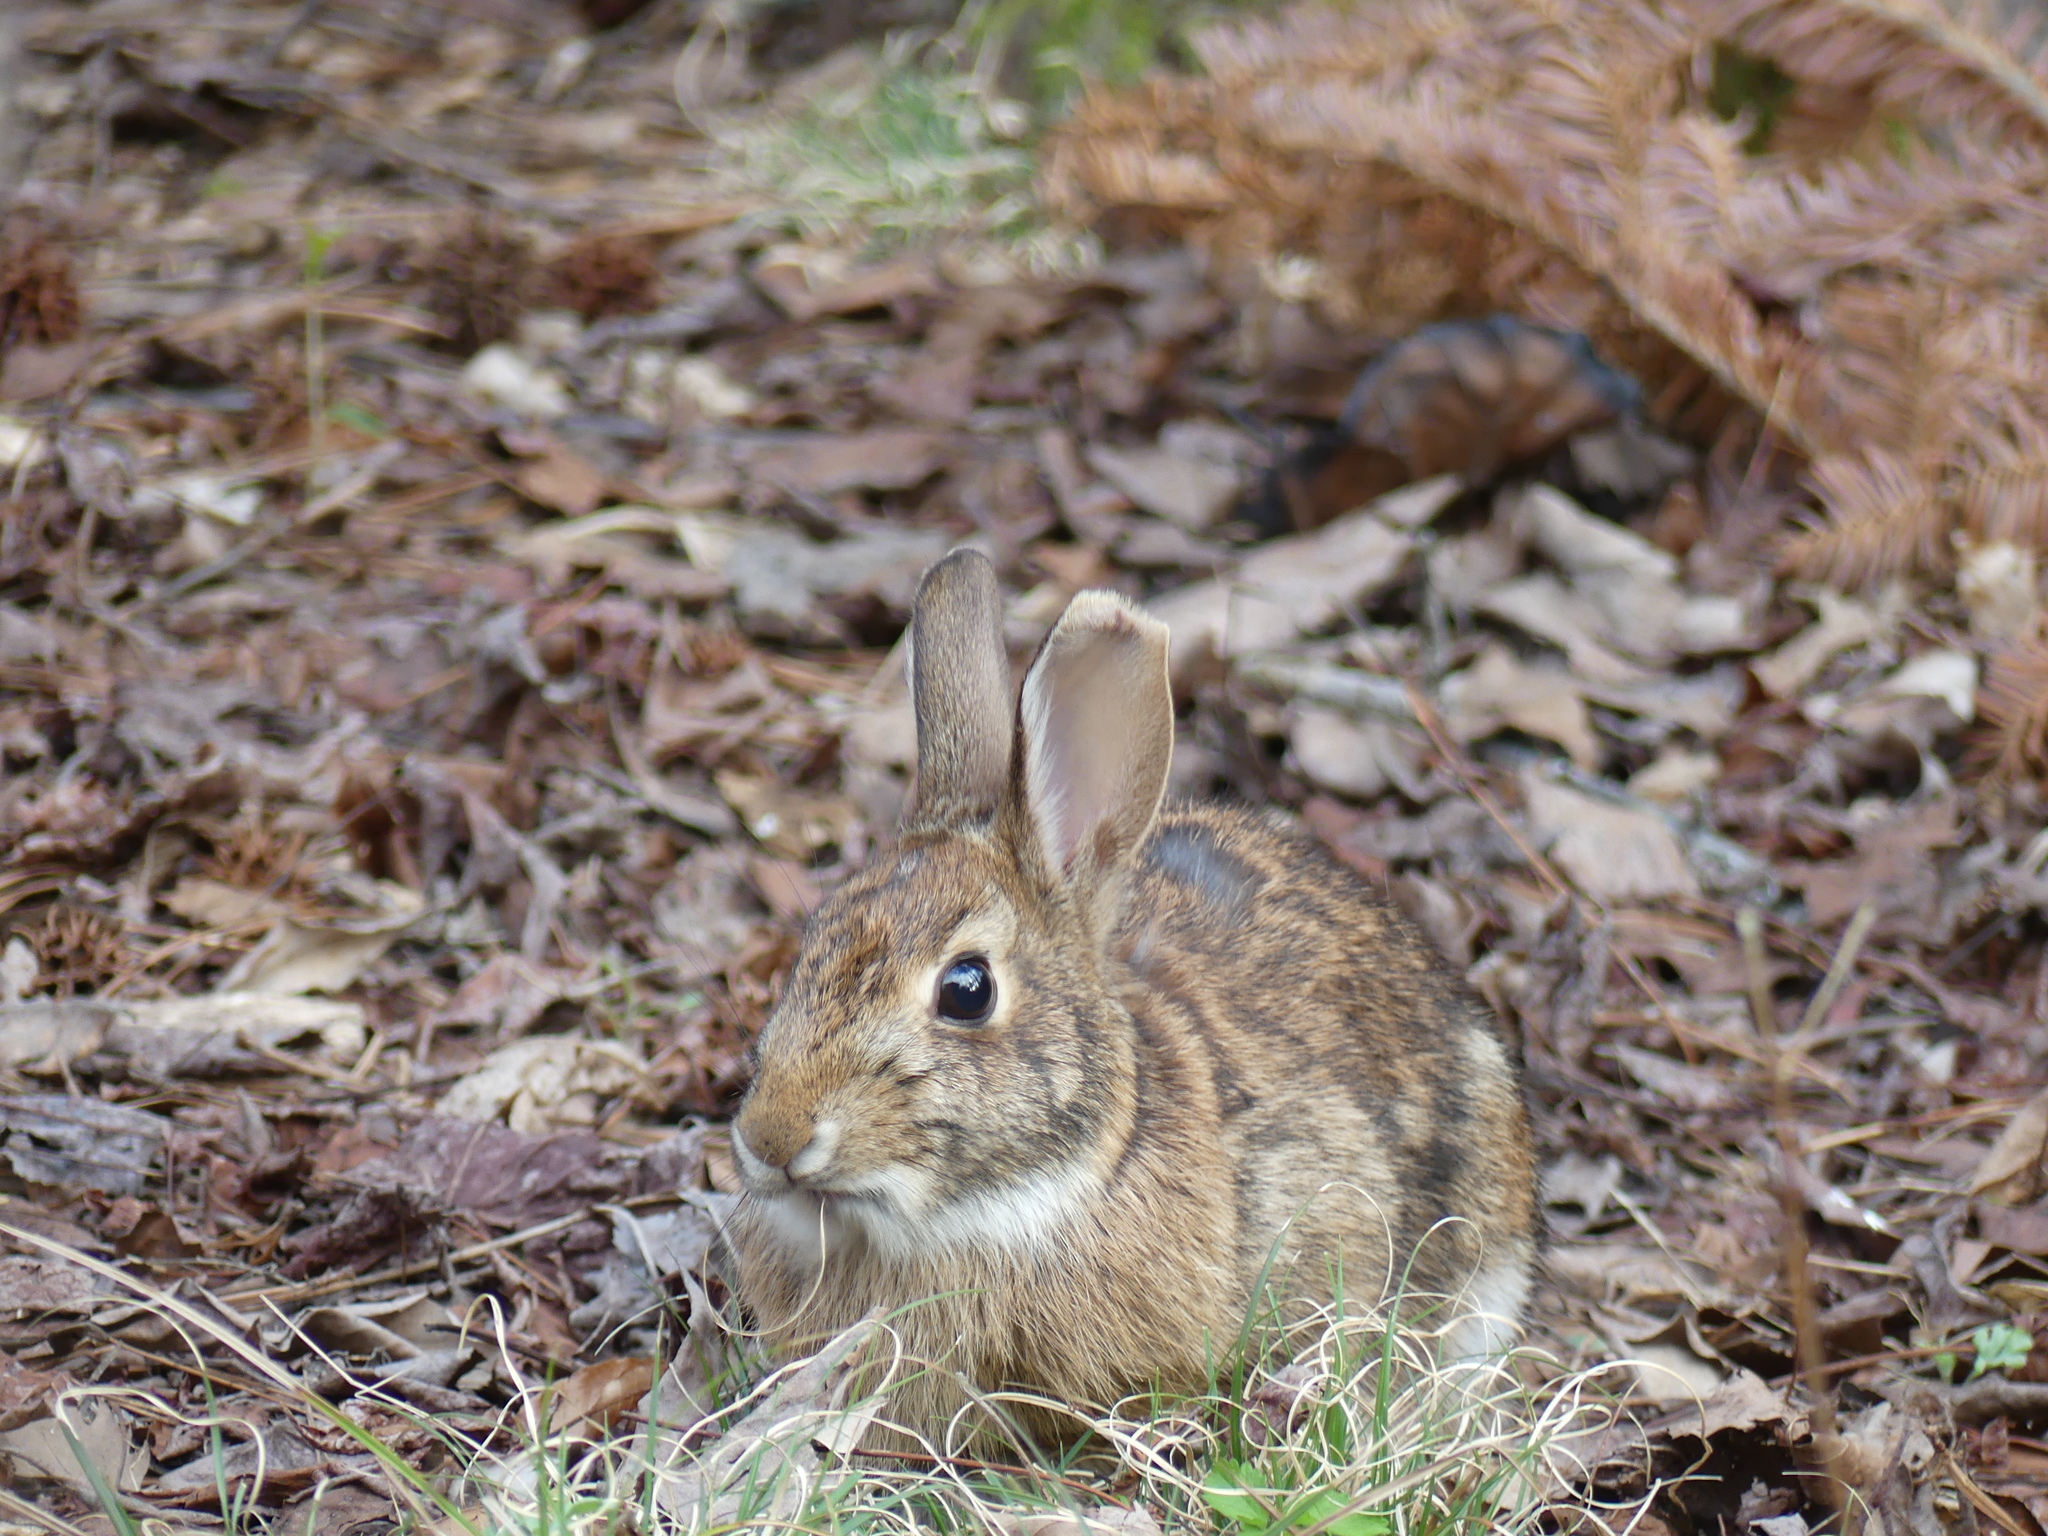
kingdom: Animalia
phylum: Chordata
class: Mammalia
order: Lagomorpha
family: Leporidae
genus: Sylvilagus
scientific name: Sylvilagus floridanus
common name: Eastern cottontail
